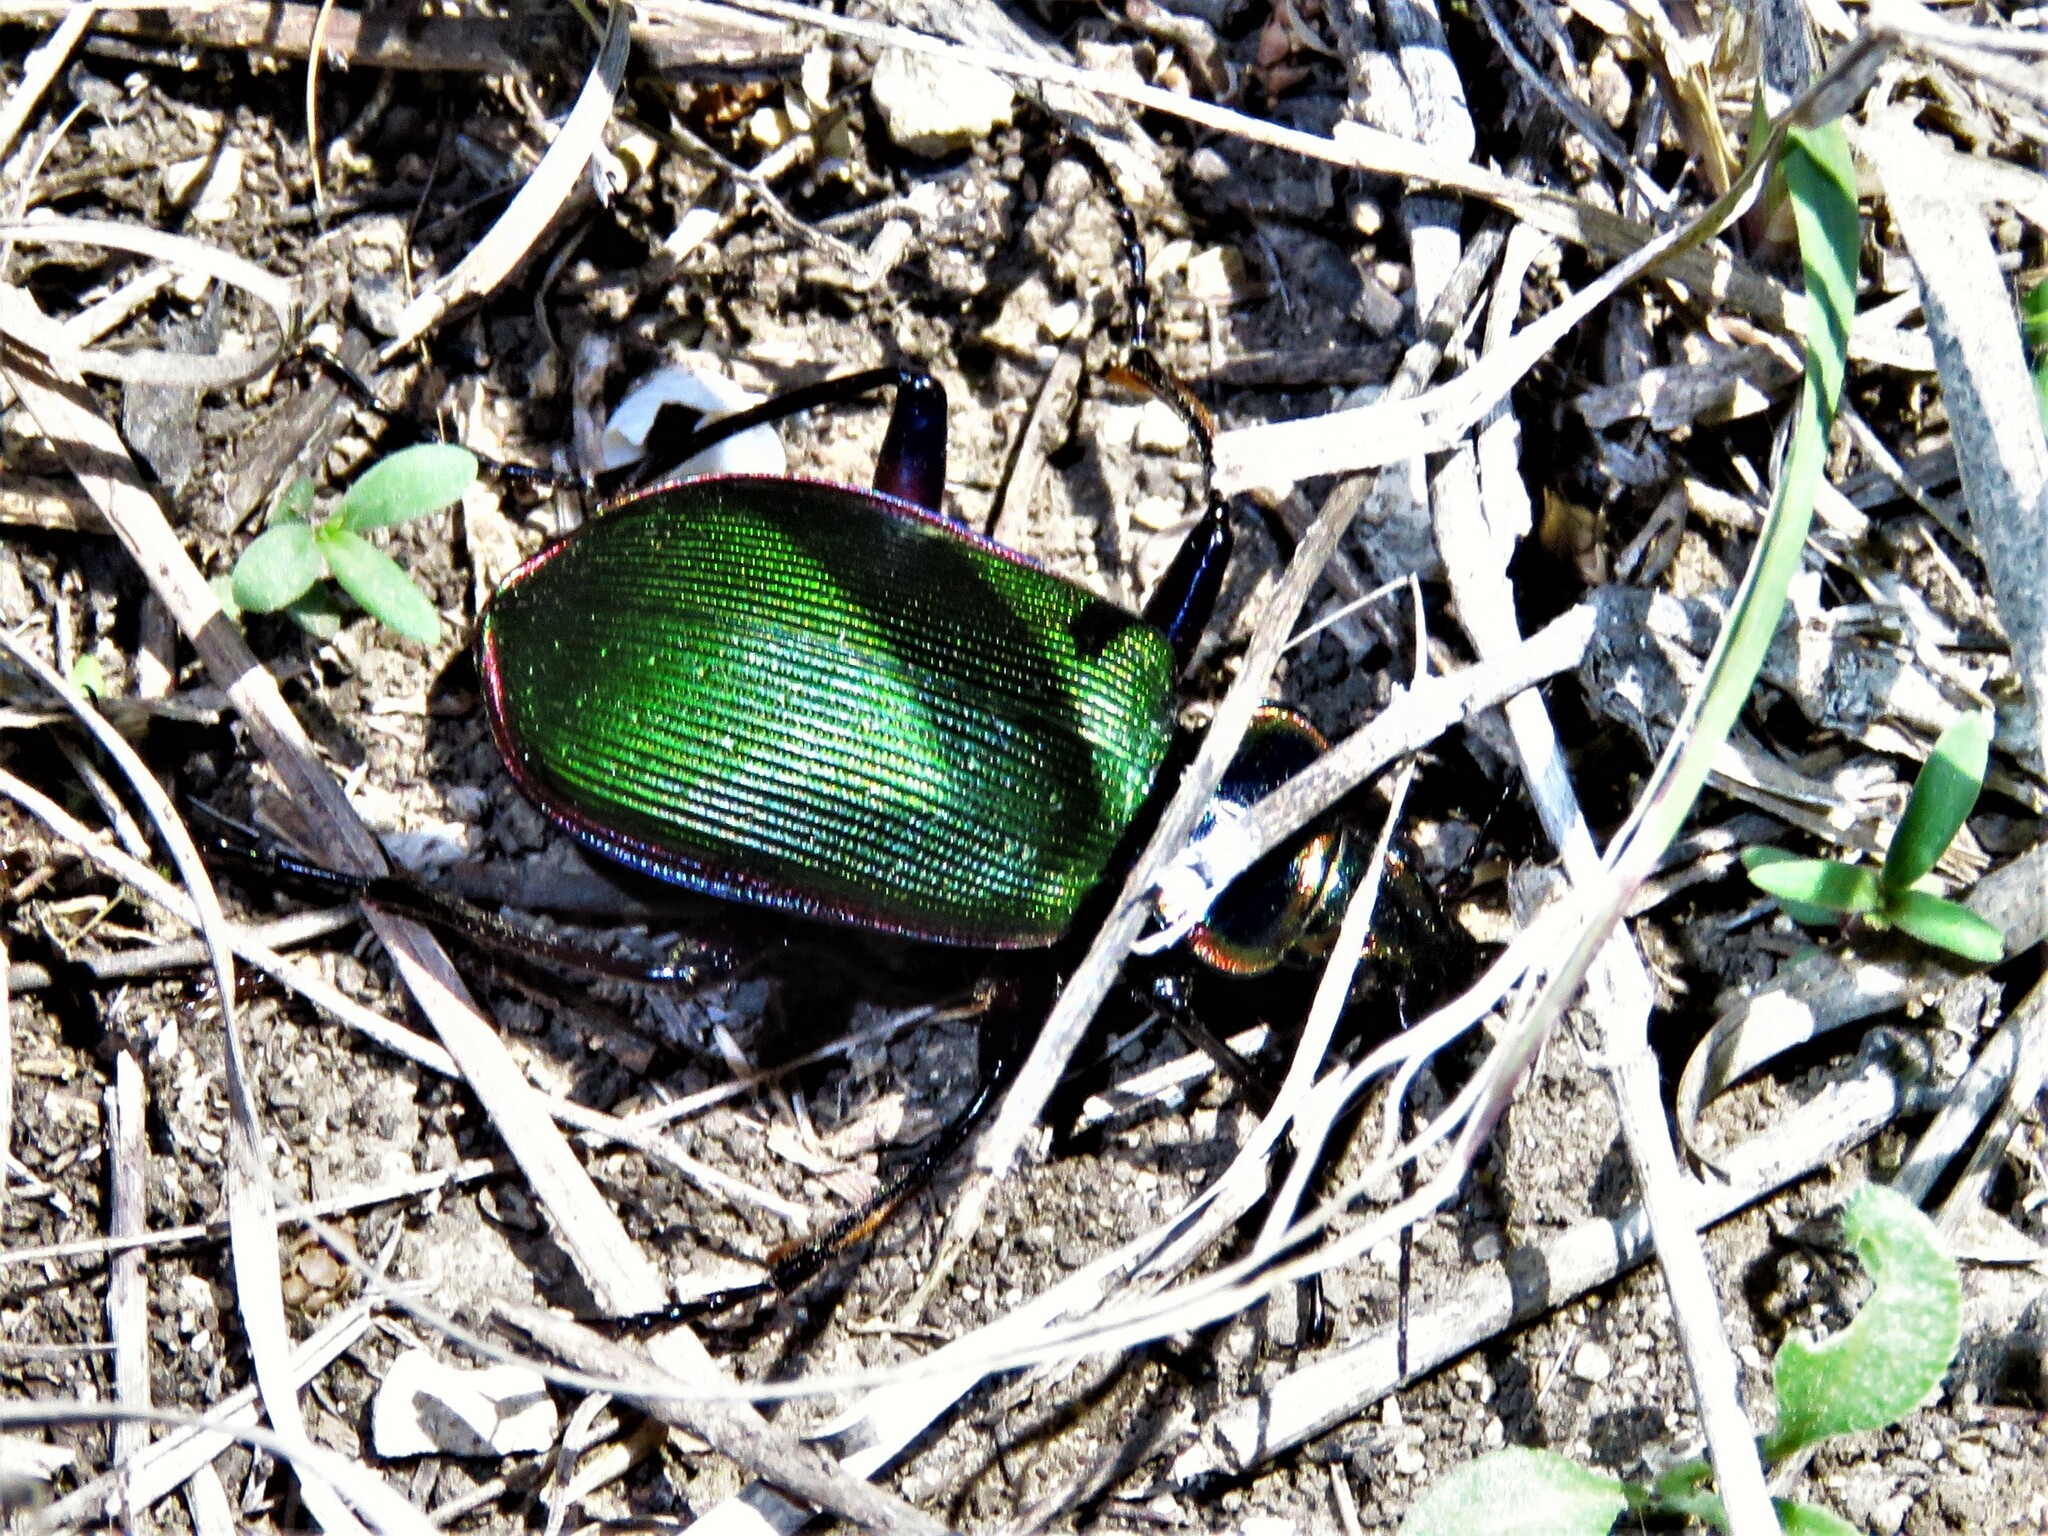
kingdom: Animalia
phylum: Arthropoda
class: Insecta
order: Coleoptera
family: Carabidae
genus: Calosoma
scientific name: Calosoma scrutator
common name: Fiery searcher beetle
